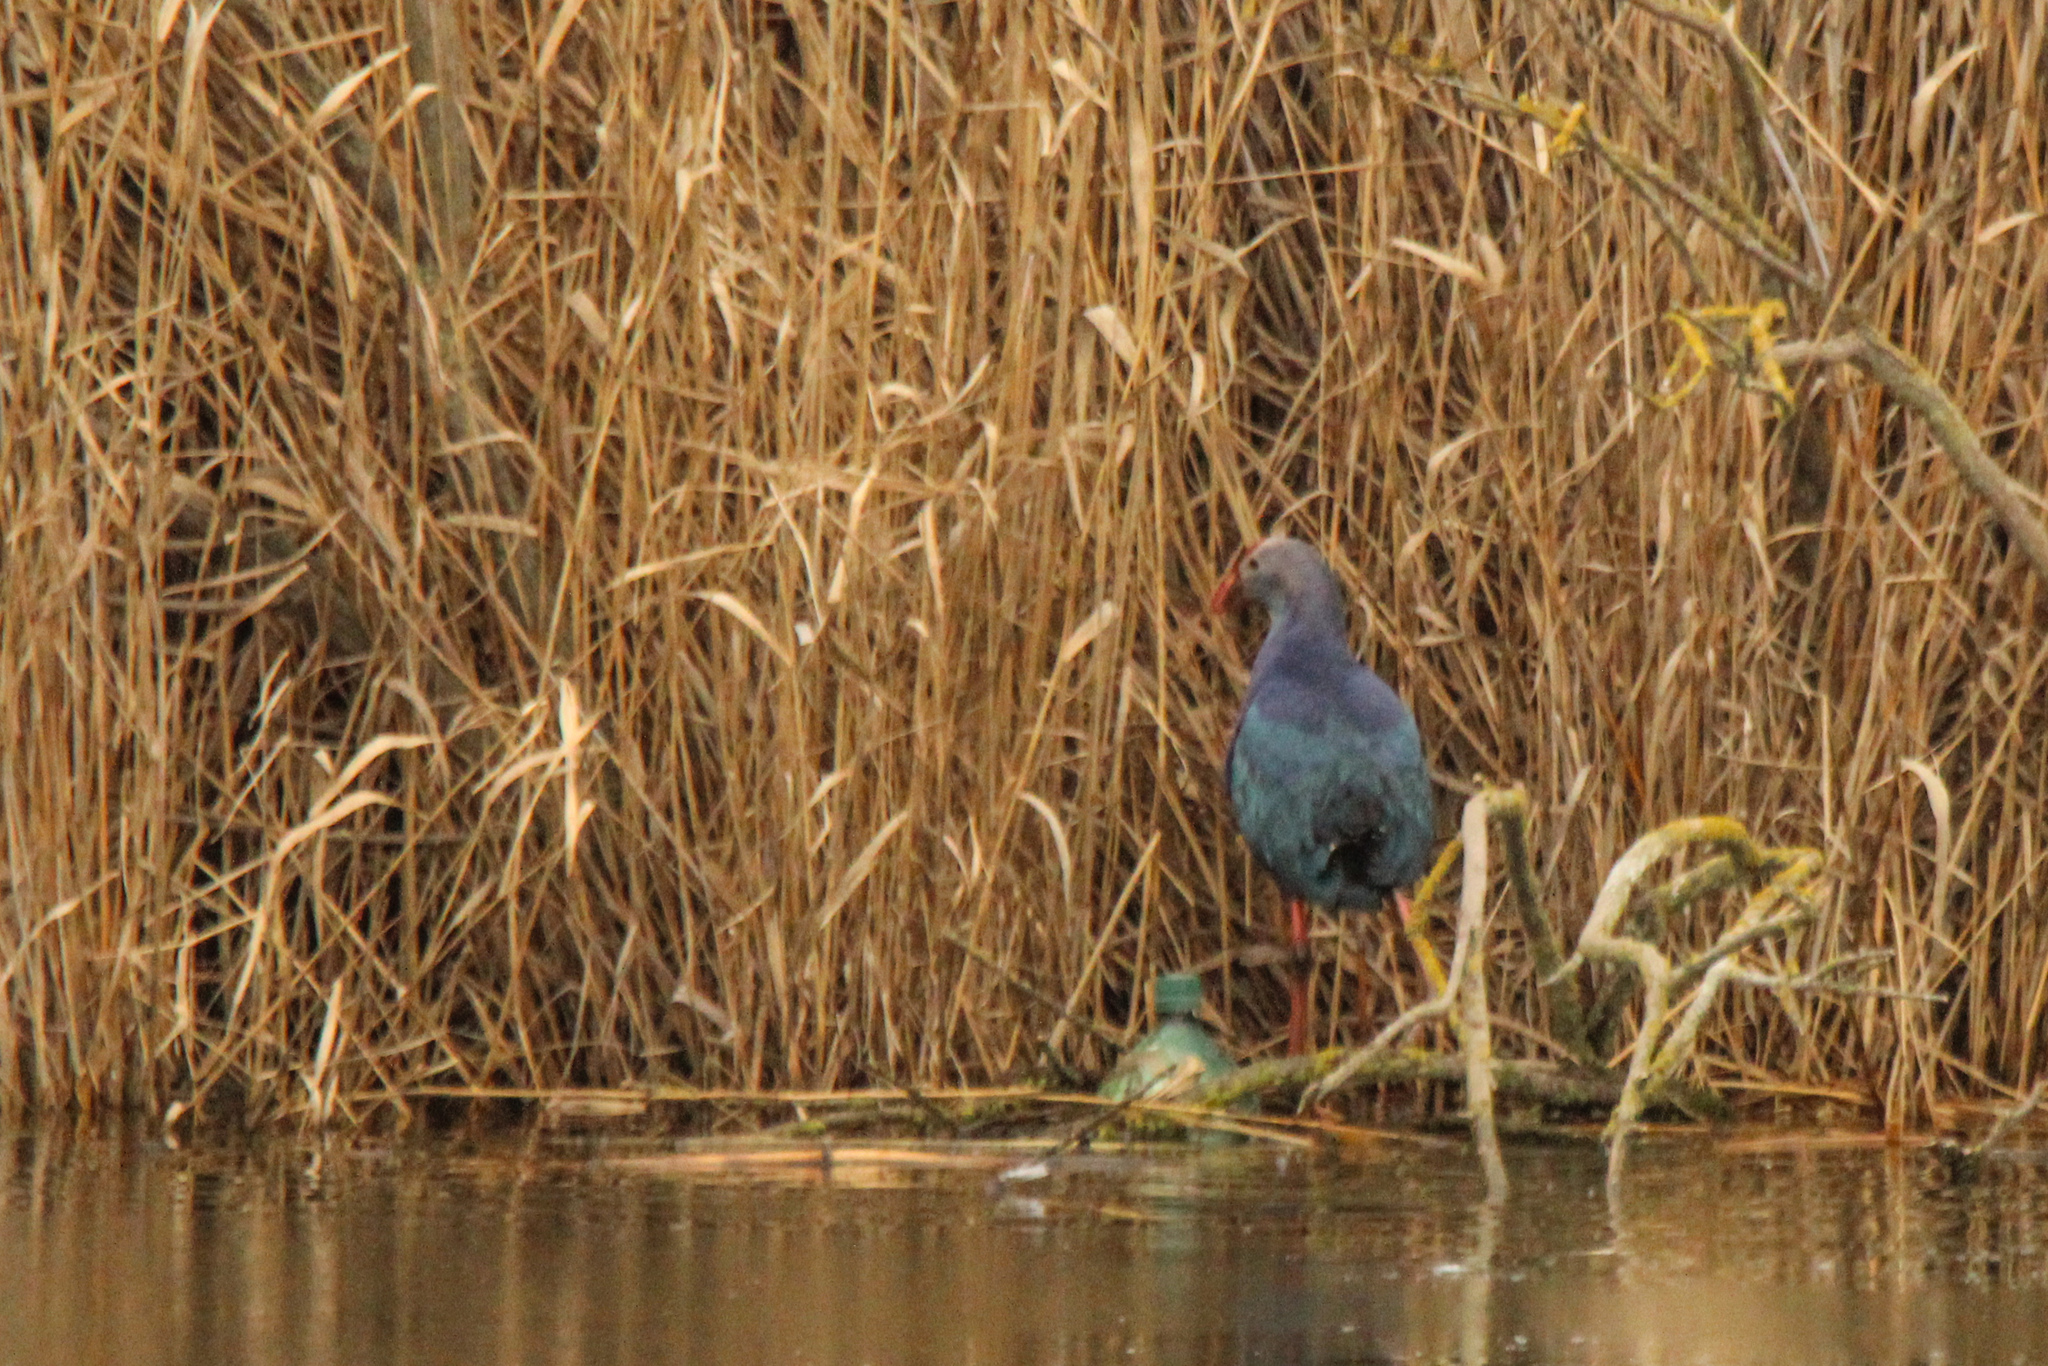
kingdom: Animalia
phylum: Chordata
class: Aves
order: Gruiformes
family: Rallidae
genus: Porphyrio
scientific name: Porphyrio porphyrio
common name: Purple swamphen
